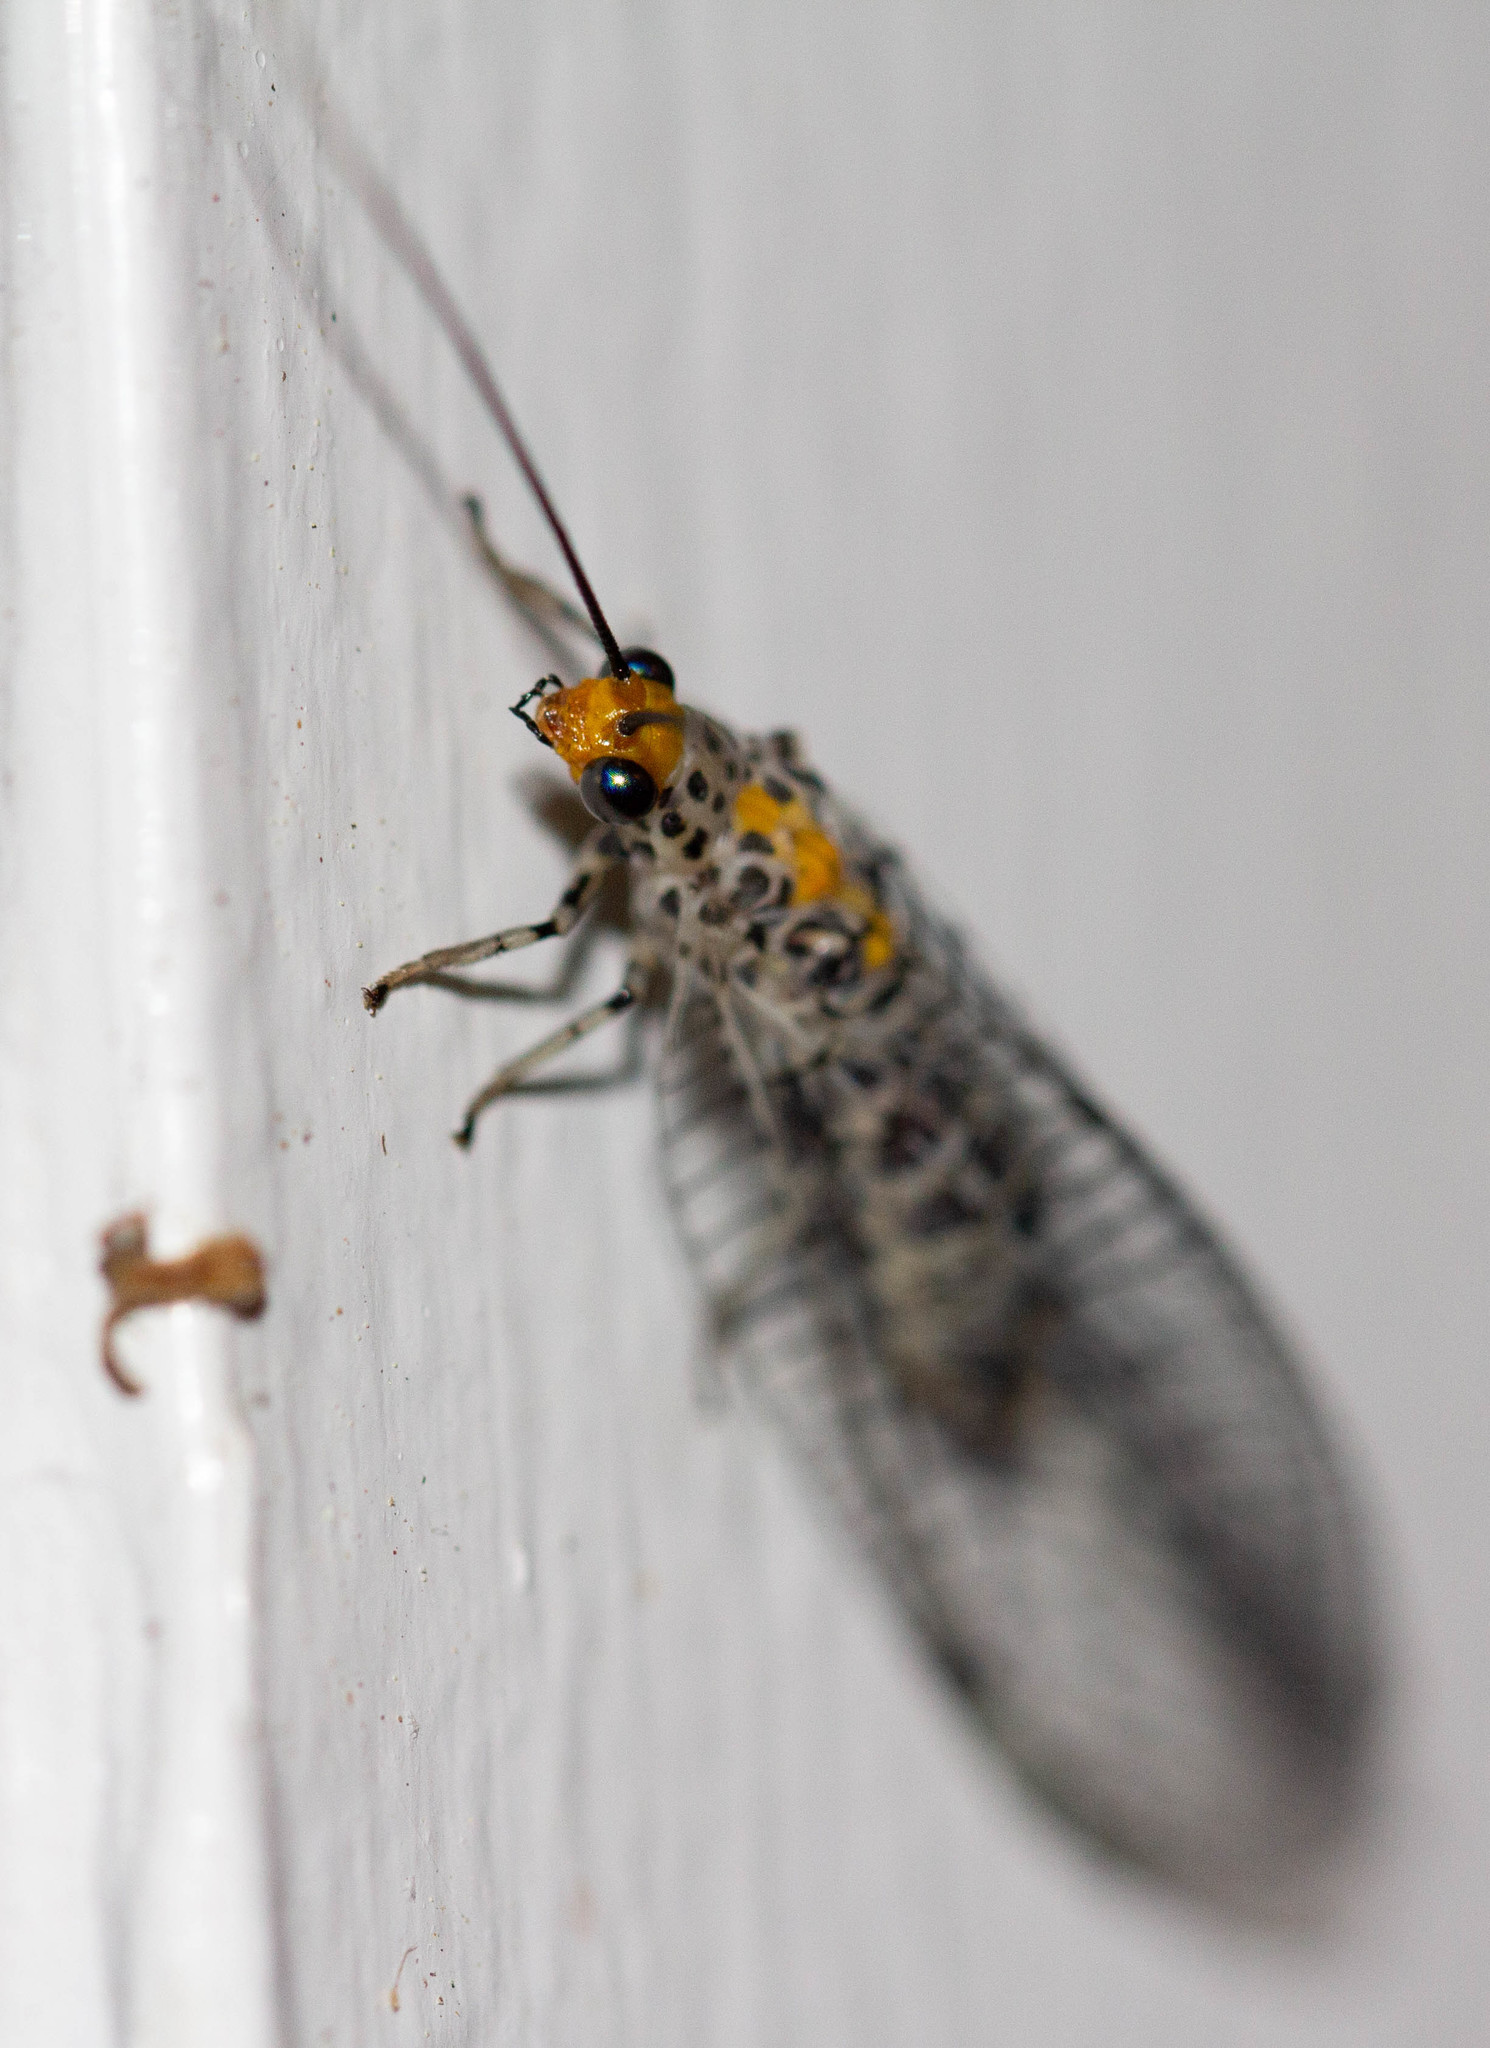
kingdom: Animalia
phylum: Arthropoda
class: Insecta
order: Neuroptera
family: Chrysopidae
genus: Abachrysa
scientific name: Abachrysa eureka
